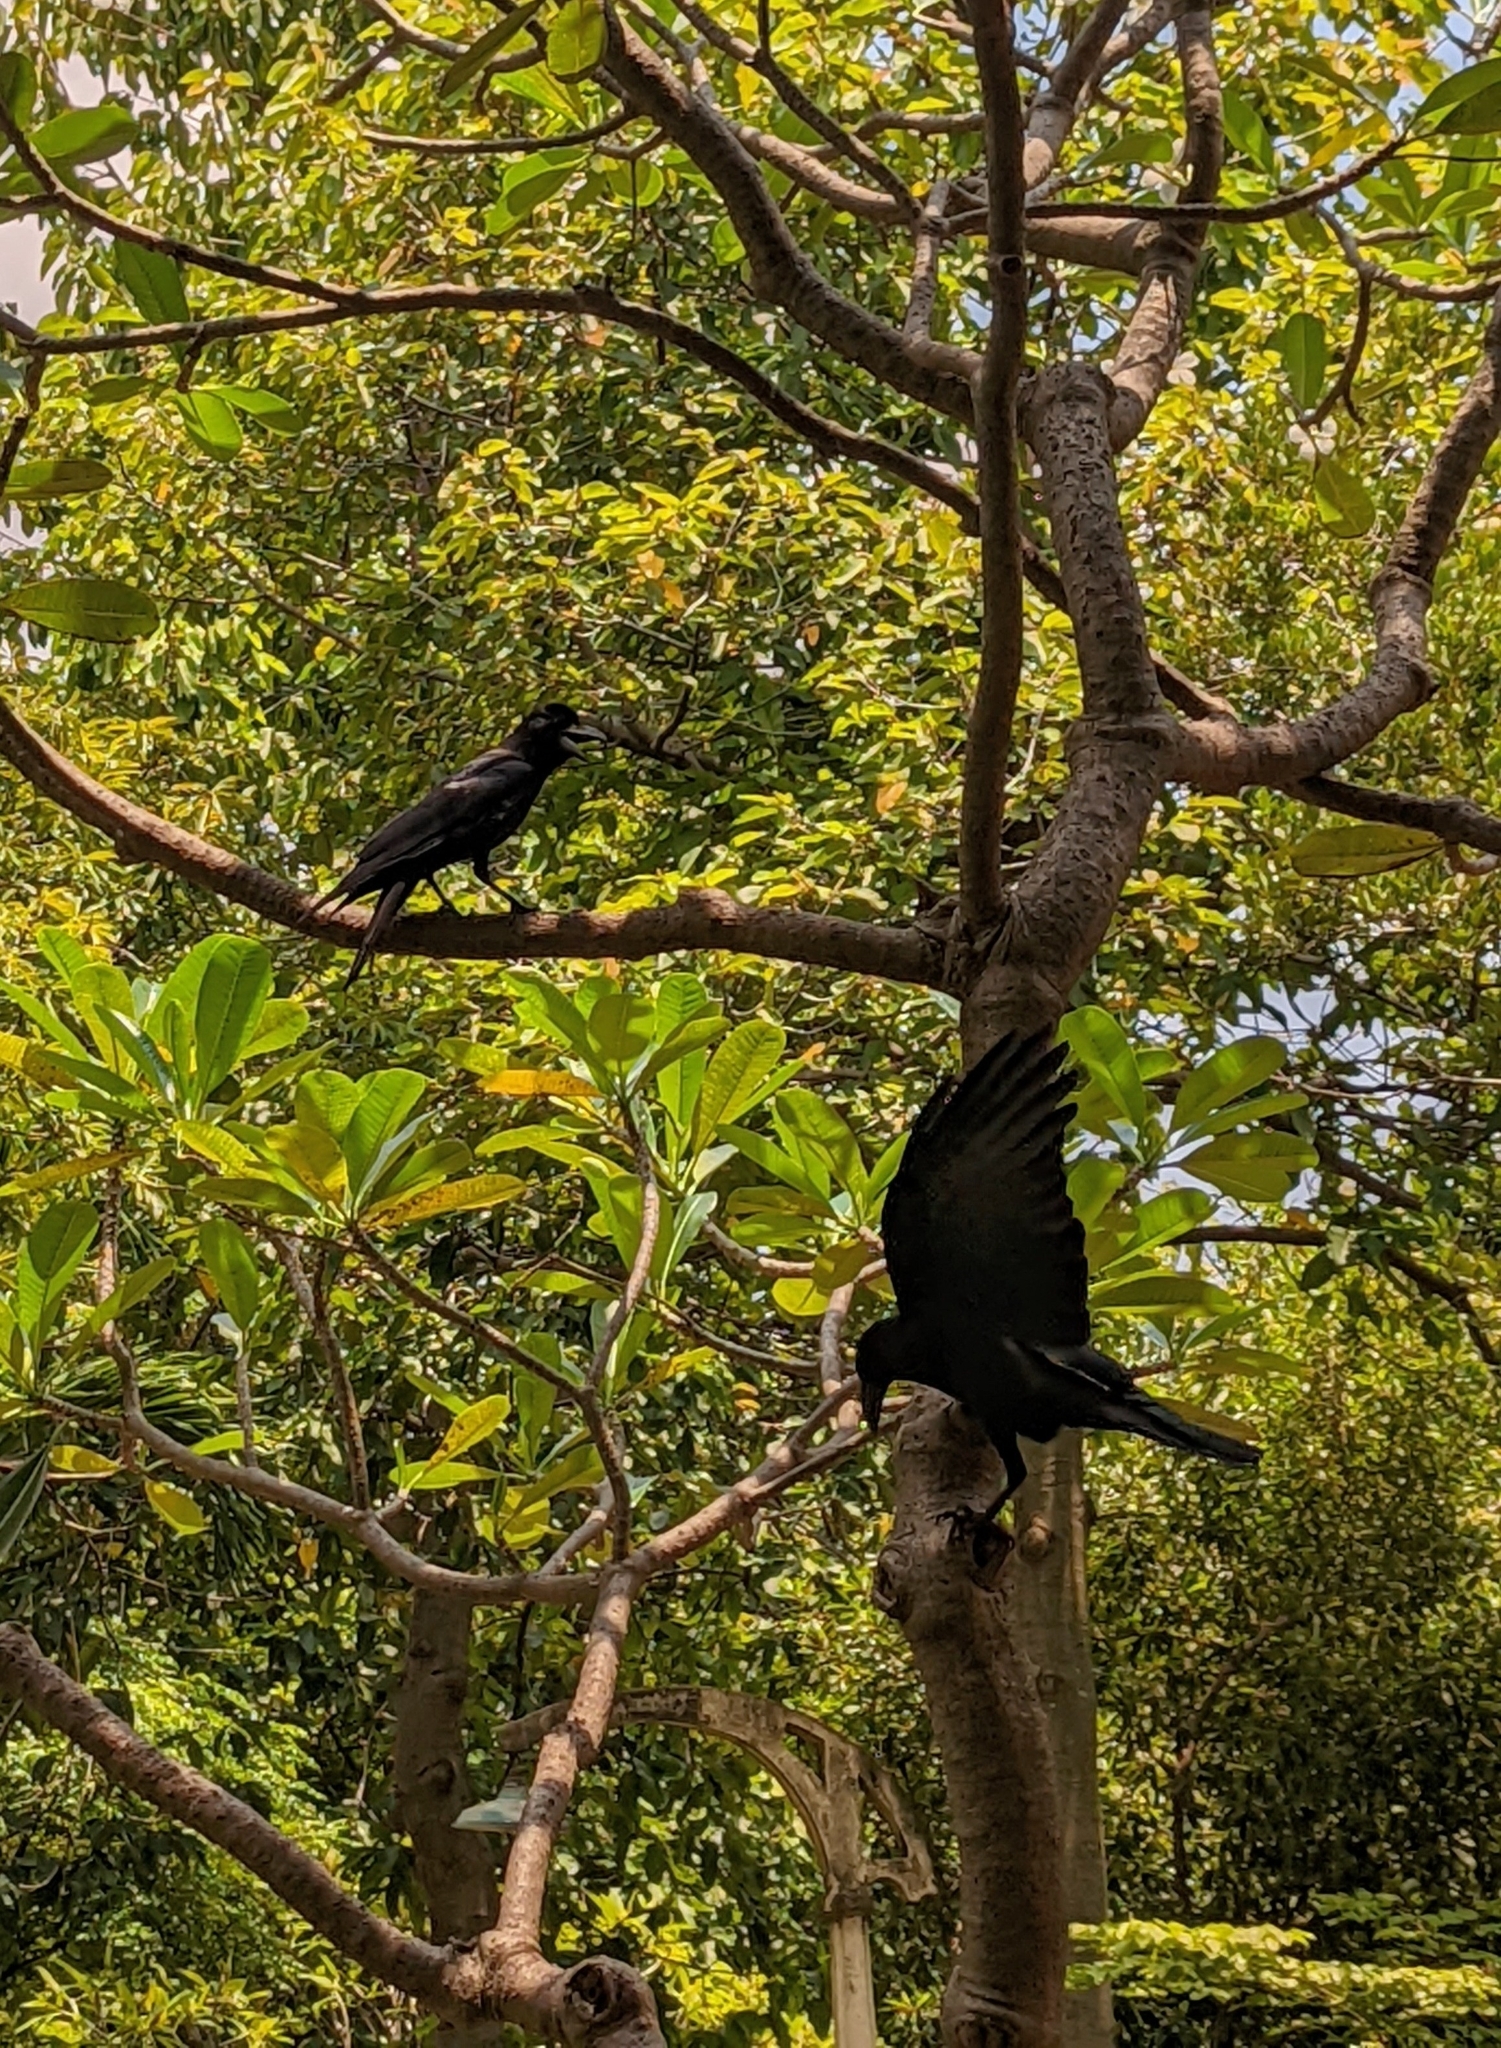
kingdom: Animalia
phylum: Chordata
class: Aves
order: Passeriformes
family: Corvidae
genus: Corvus
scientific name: Corvus macrorhynchos
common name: Large-billed crow
